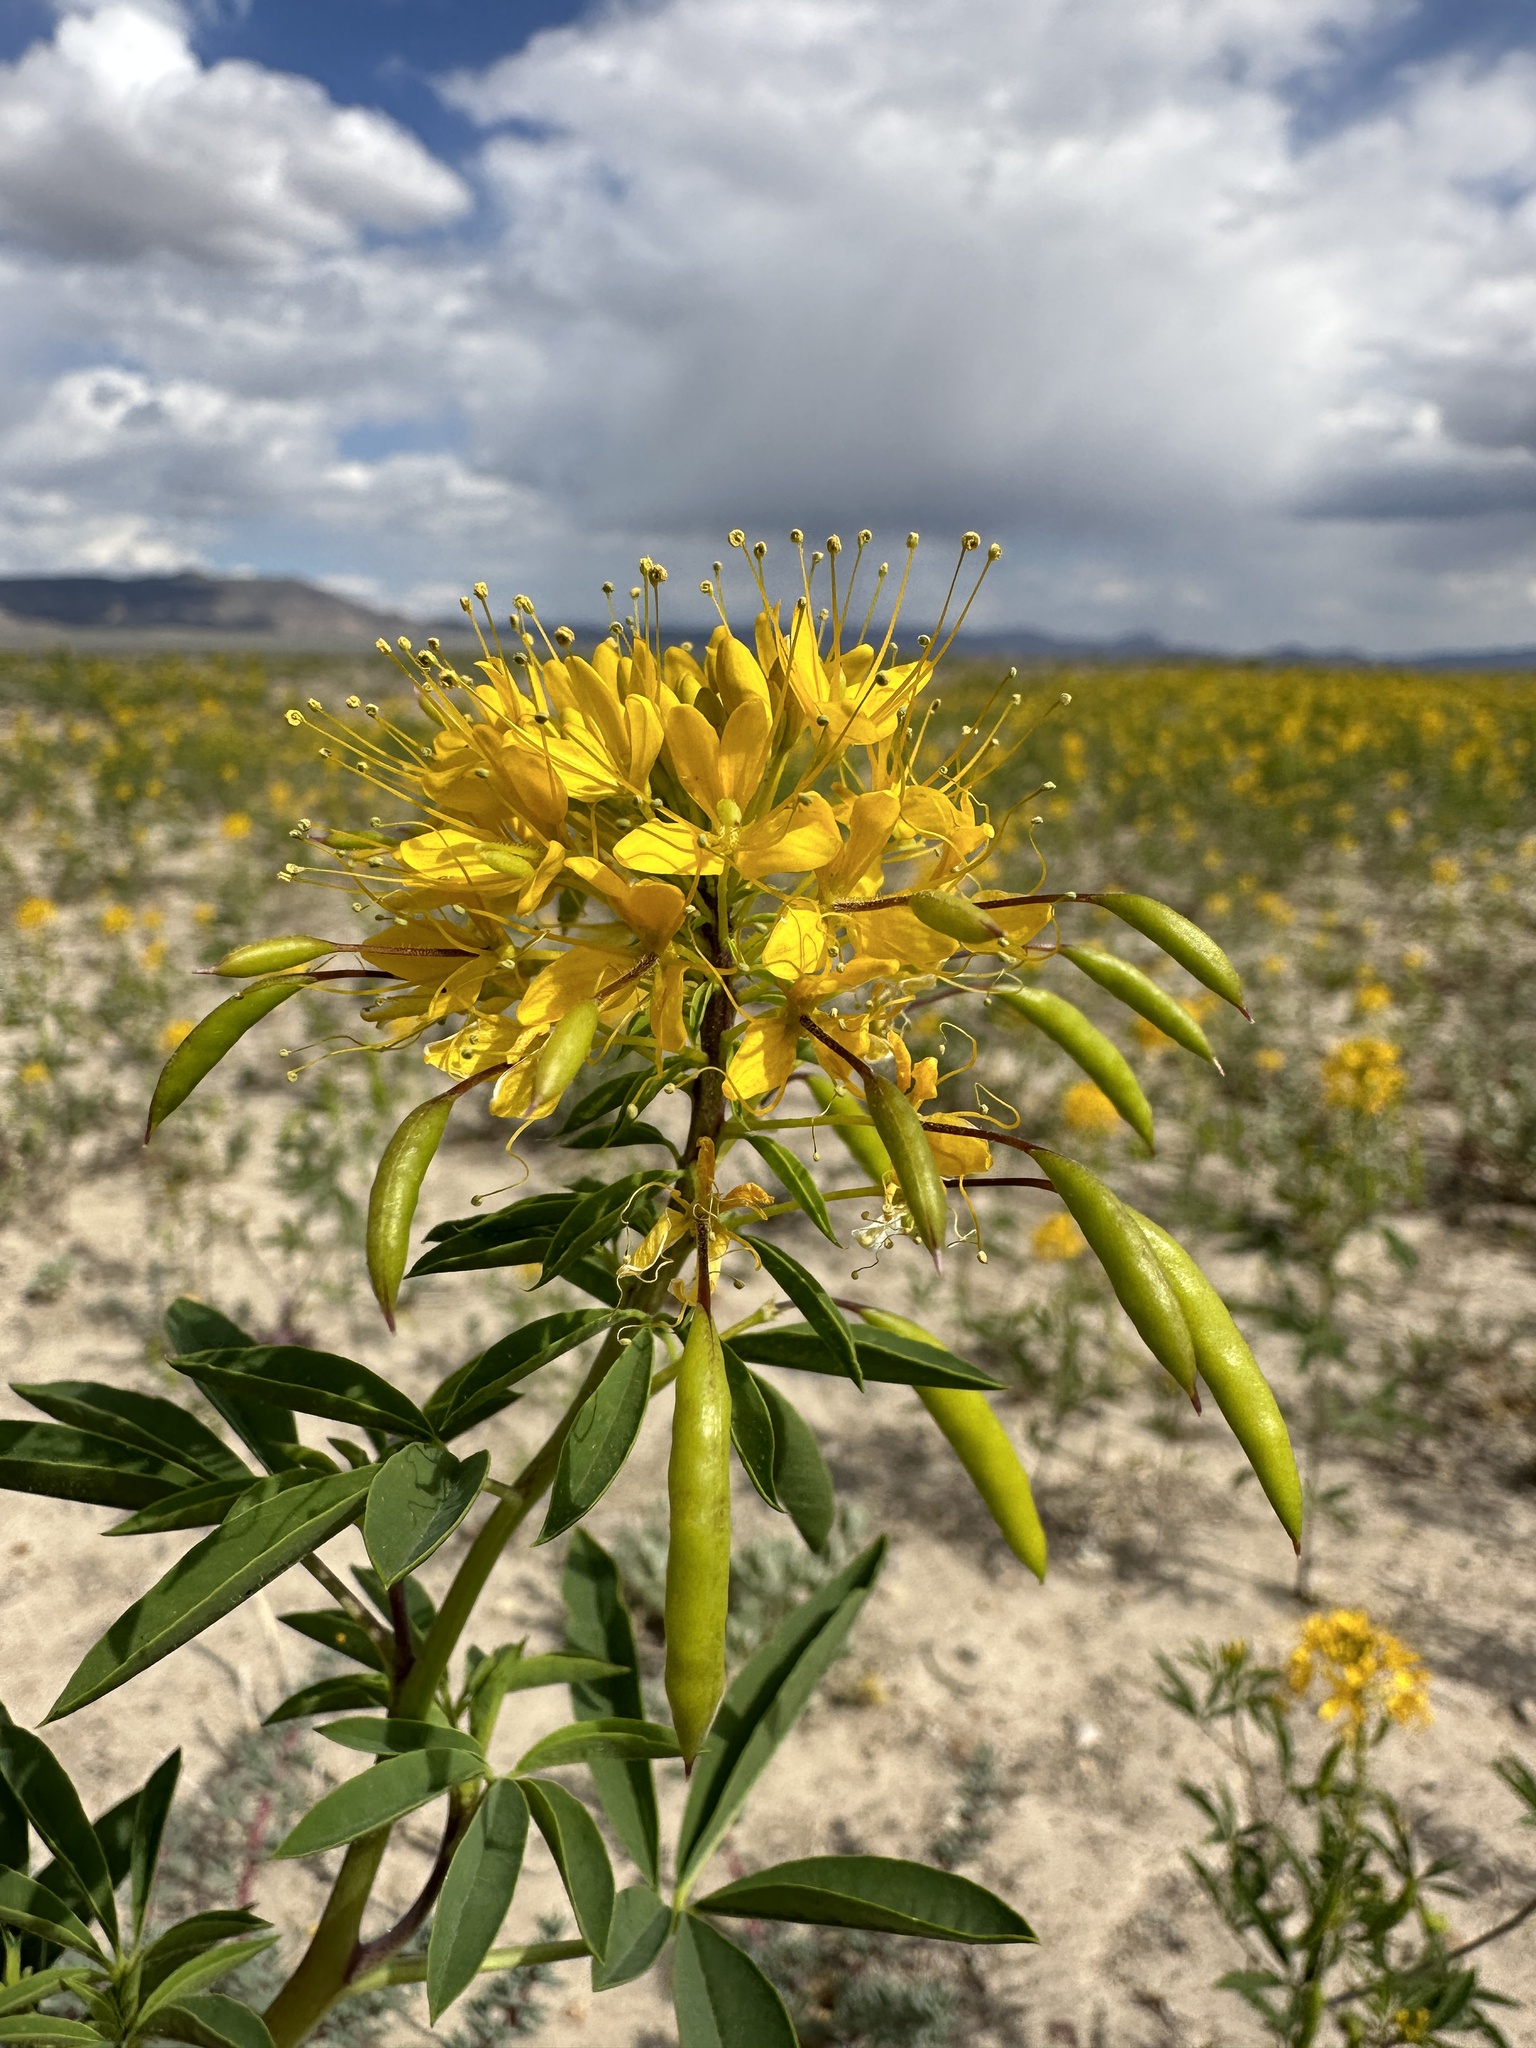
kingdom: Plantae
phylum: Tracheophyta
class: Magnoliopsida
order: Brassicales
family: Cleomaceae
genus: Cleomella
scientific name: Cleomella lutea
